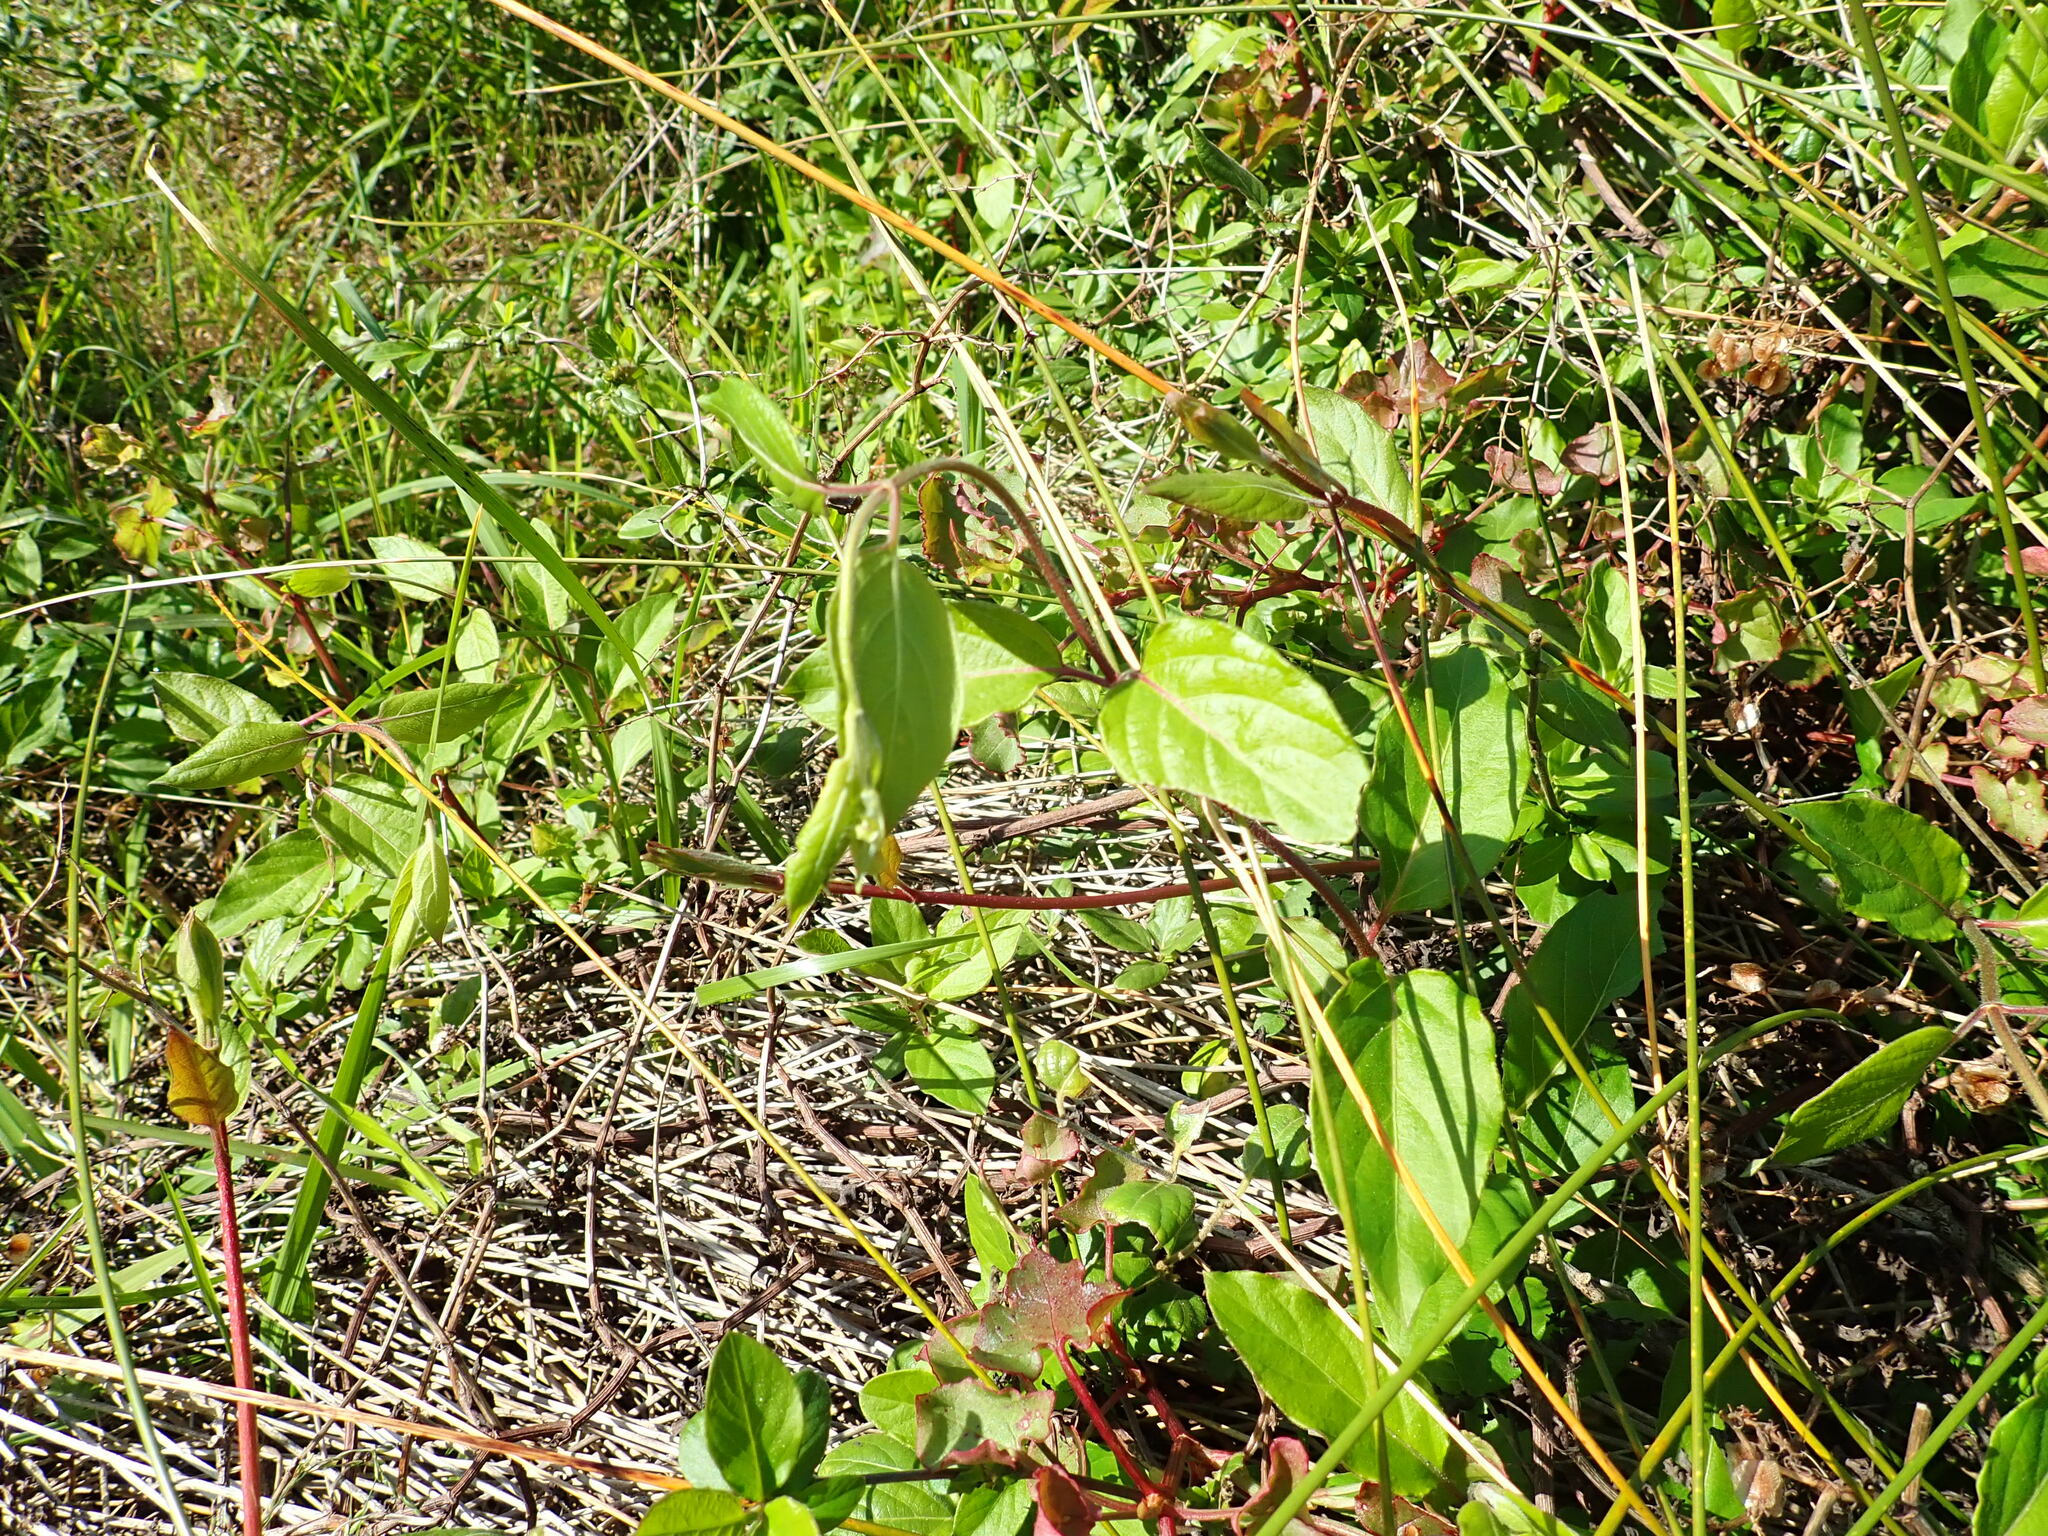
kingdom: Plantae
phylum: Tracheophyta
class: Magnoliopsida
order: Dipsacales
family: Caprifoliaceae
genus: Lonicera
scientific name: Lonicera japonica
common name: Japanese honeysuckle
